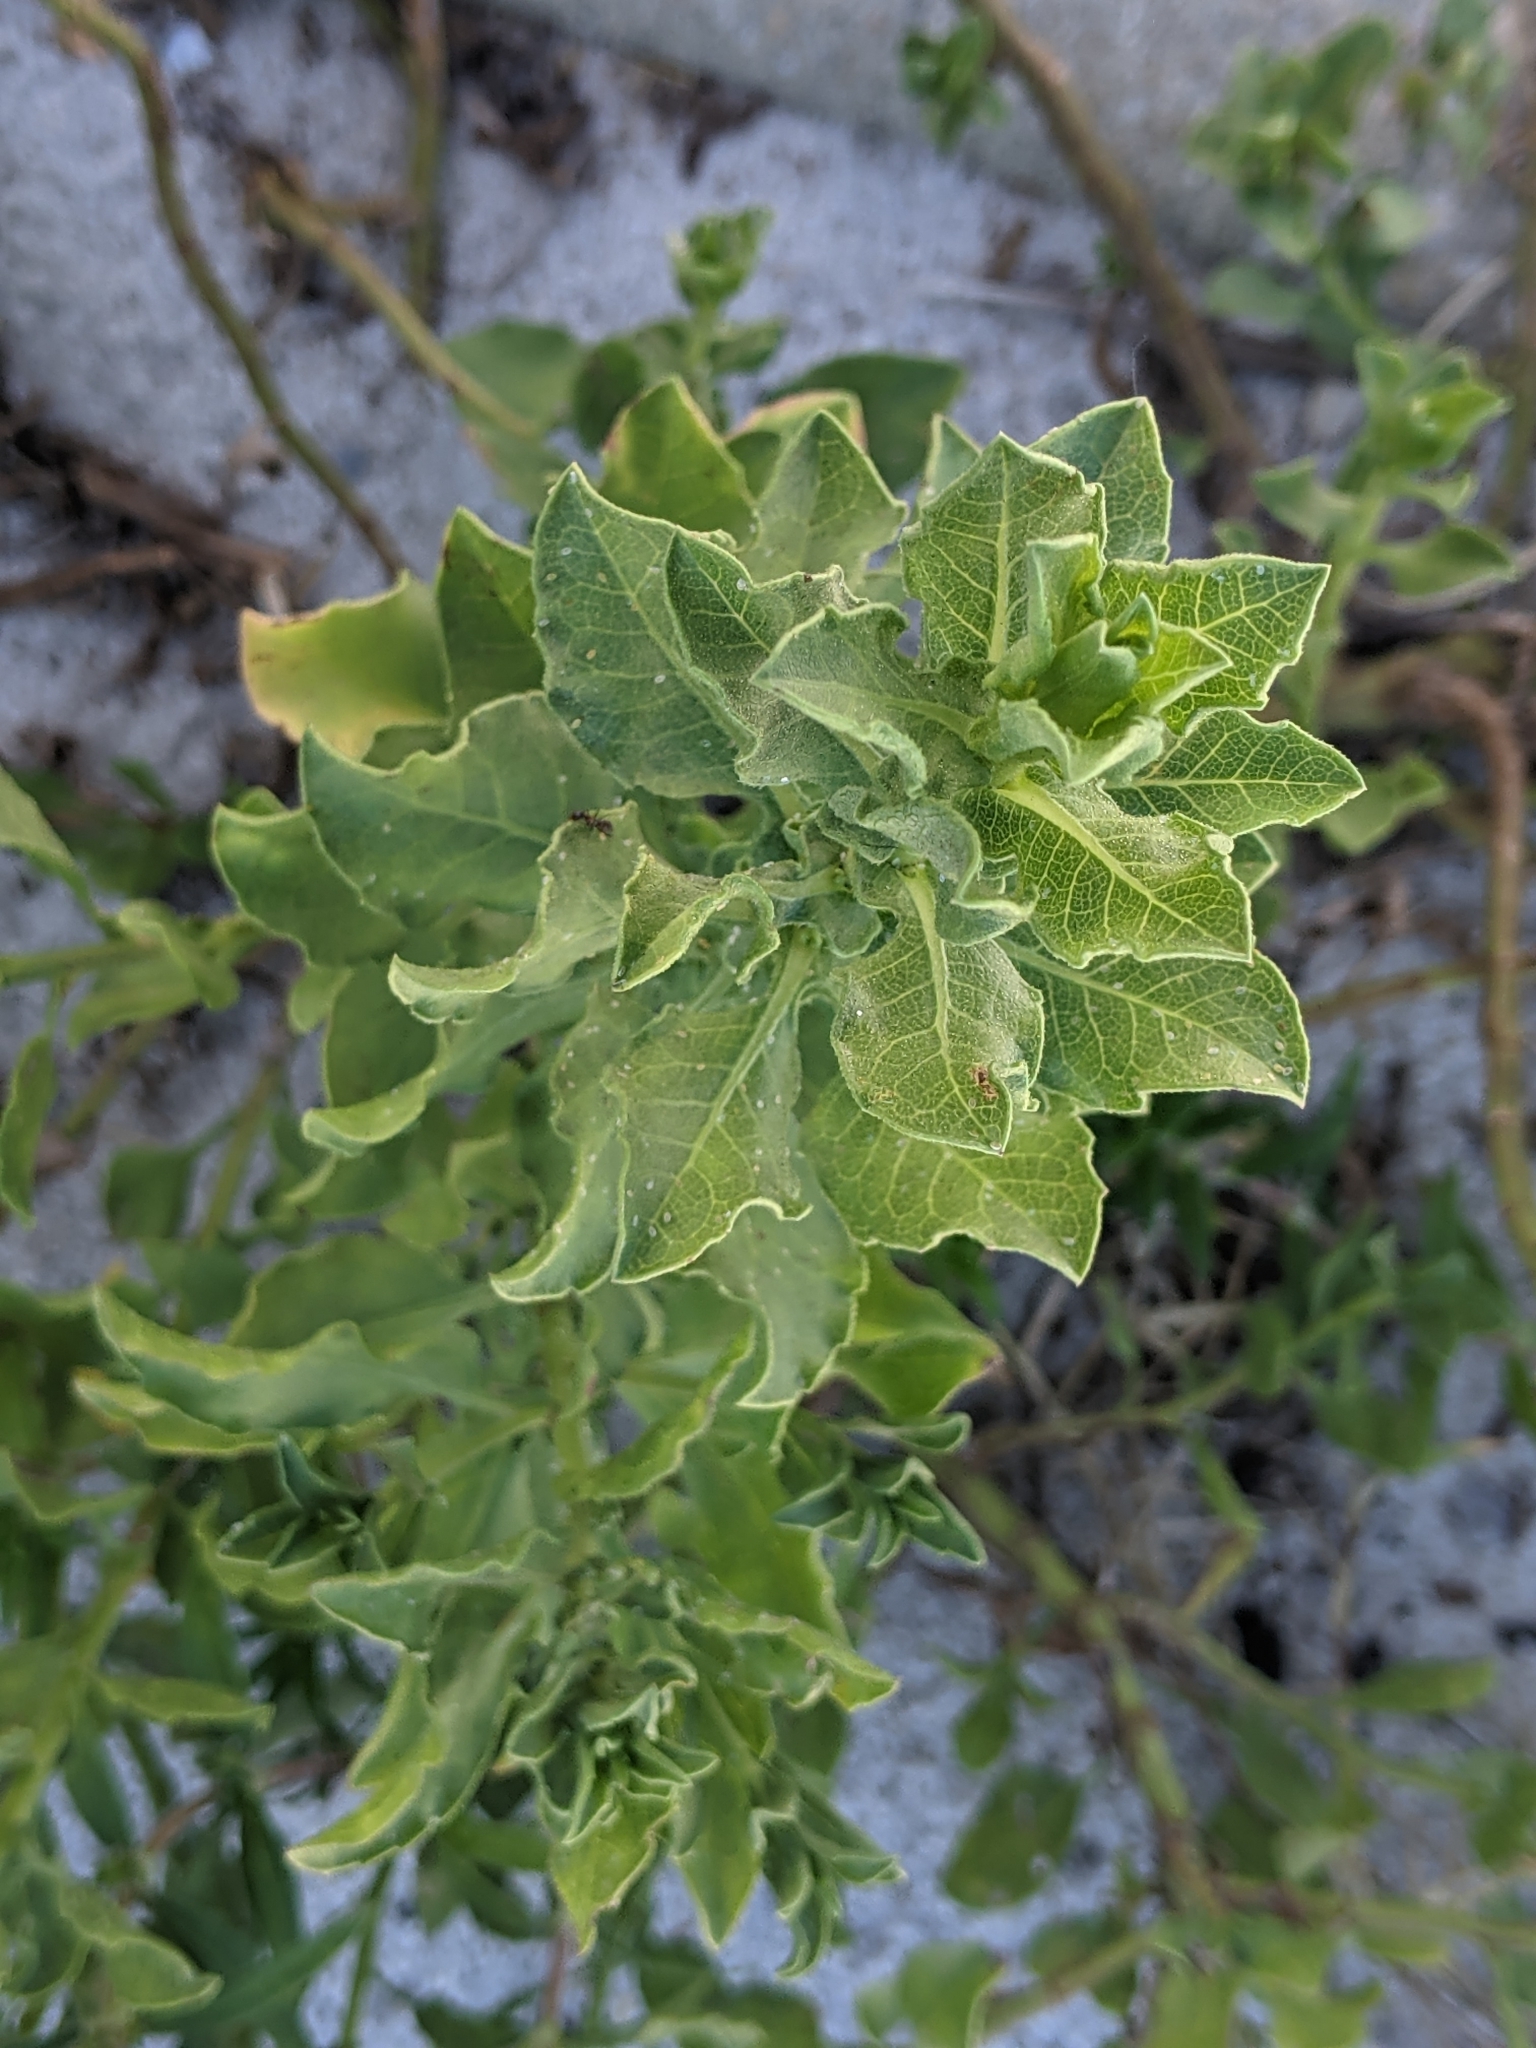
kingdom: Plantae
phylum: Tracheophyta
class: Magnoliopsida
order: Asterales
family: Asteraceae
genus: Heterotheca
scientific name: Heterotheca subaxillaris
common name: Camphorweed
